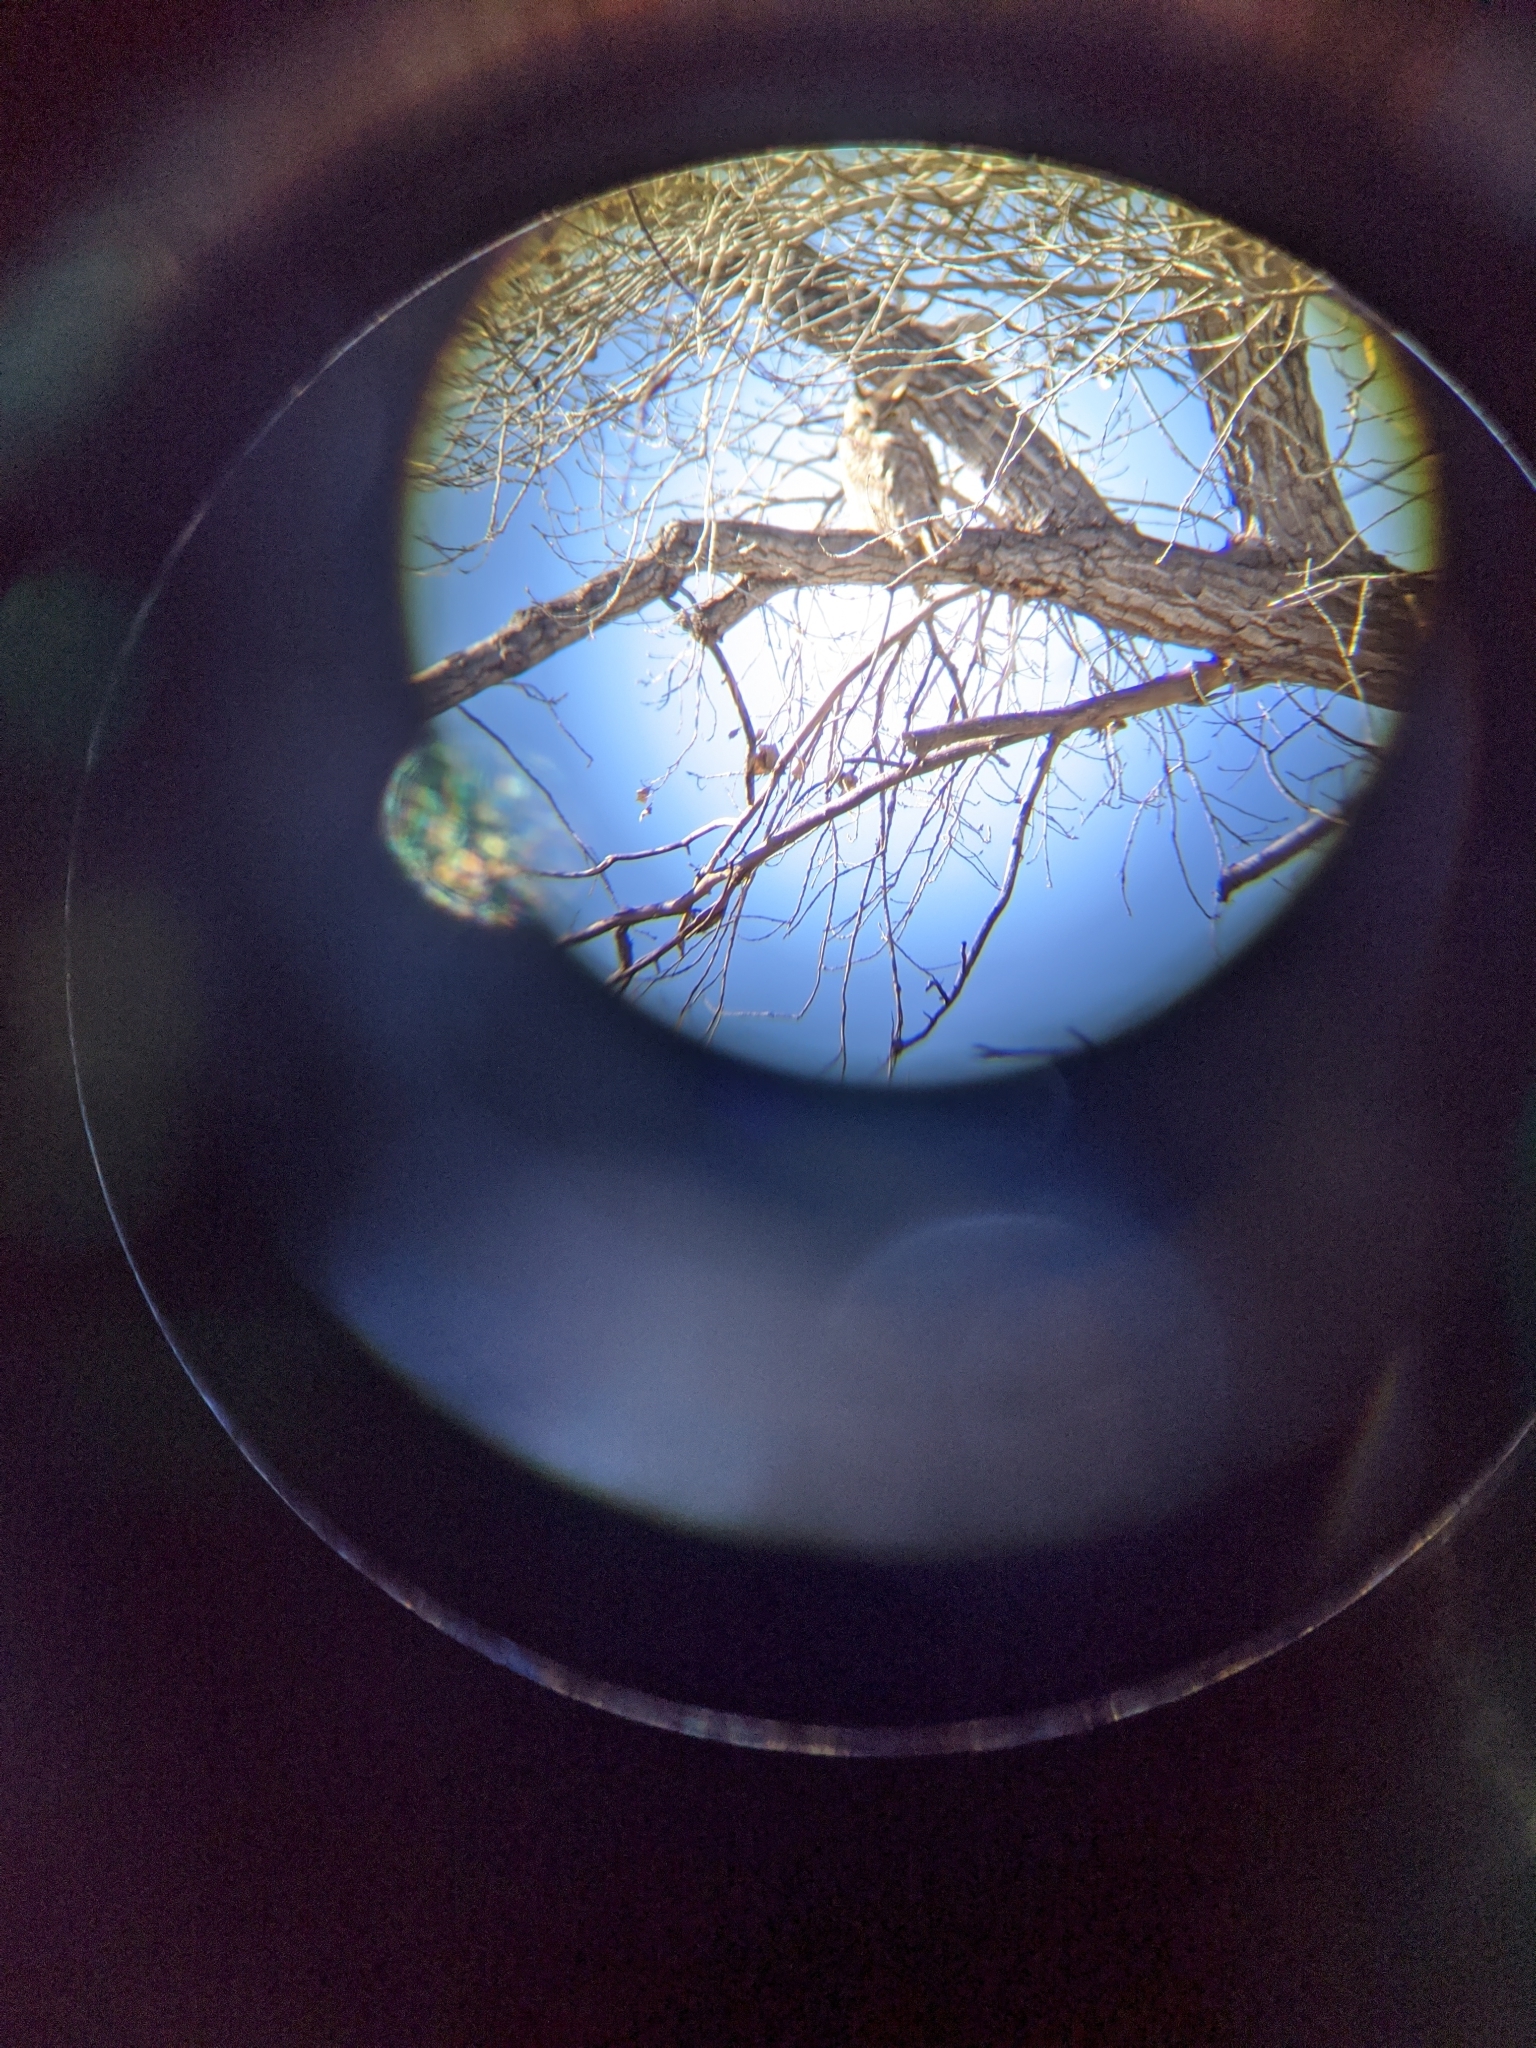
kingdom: Animalia
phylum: Chordata
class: Aves
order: Strigiformes
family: Strigidae
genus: Bubo
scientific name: Bubo virginianus
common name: Great horned owl
